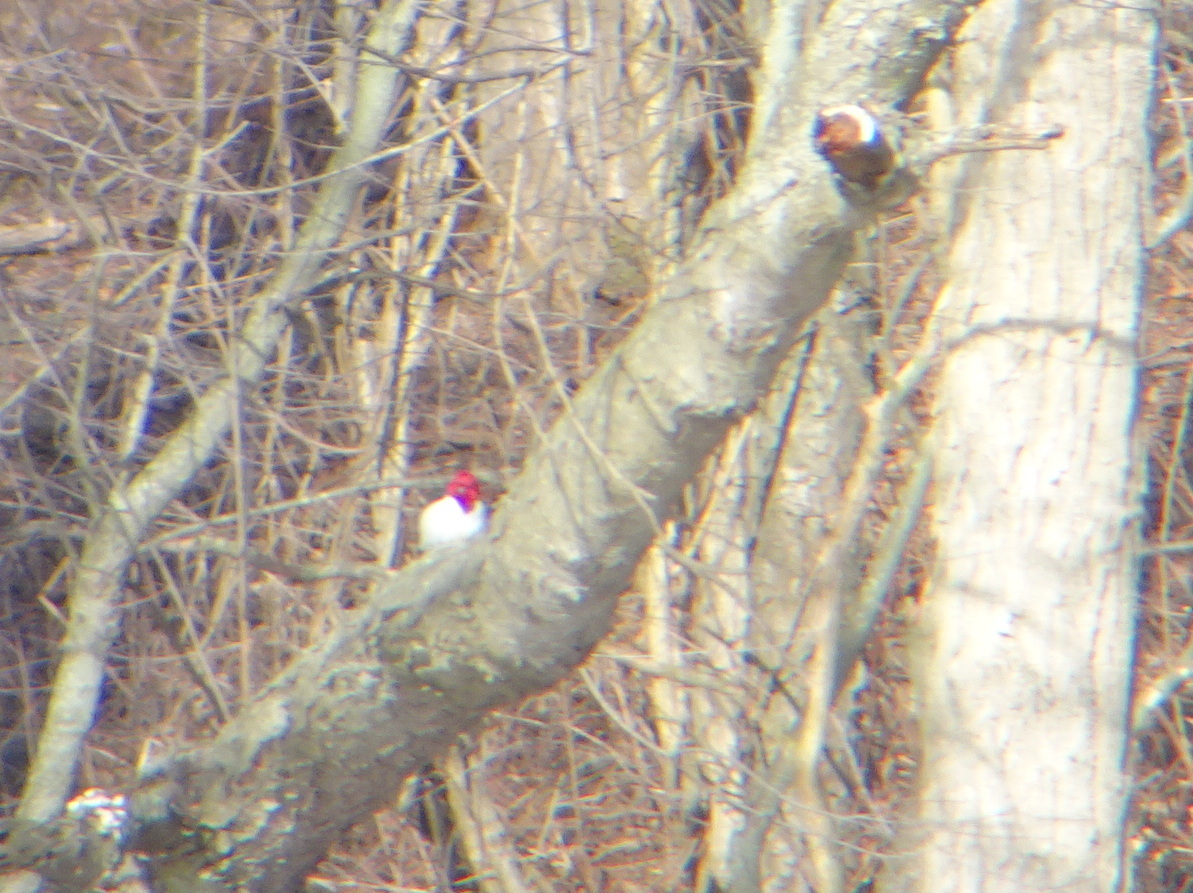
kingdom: Animalia
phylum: Chordata
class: Aves
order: Piciformes
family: Picidae
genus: Melanerpes
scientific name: Melanerpes erythrocephalus
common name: Red-headed woodpecker
